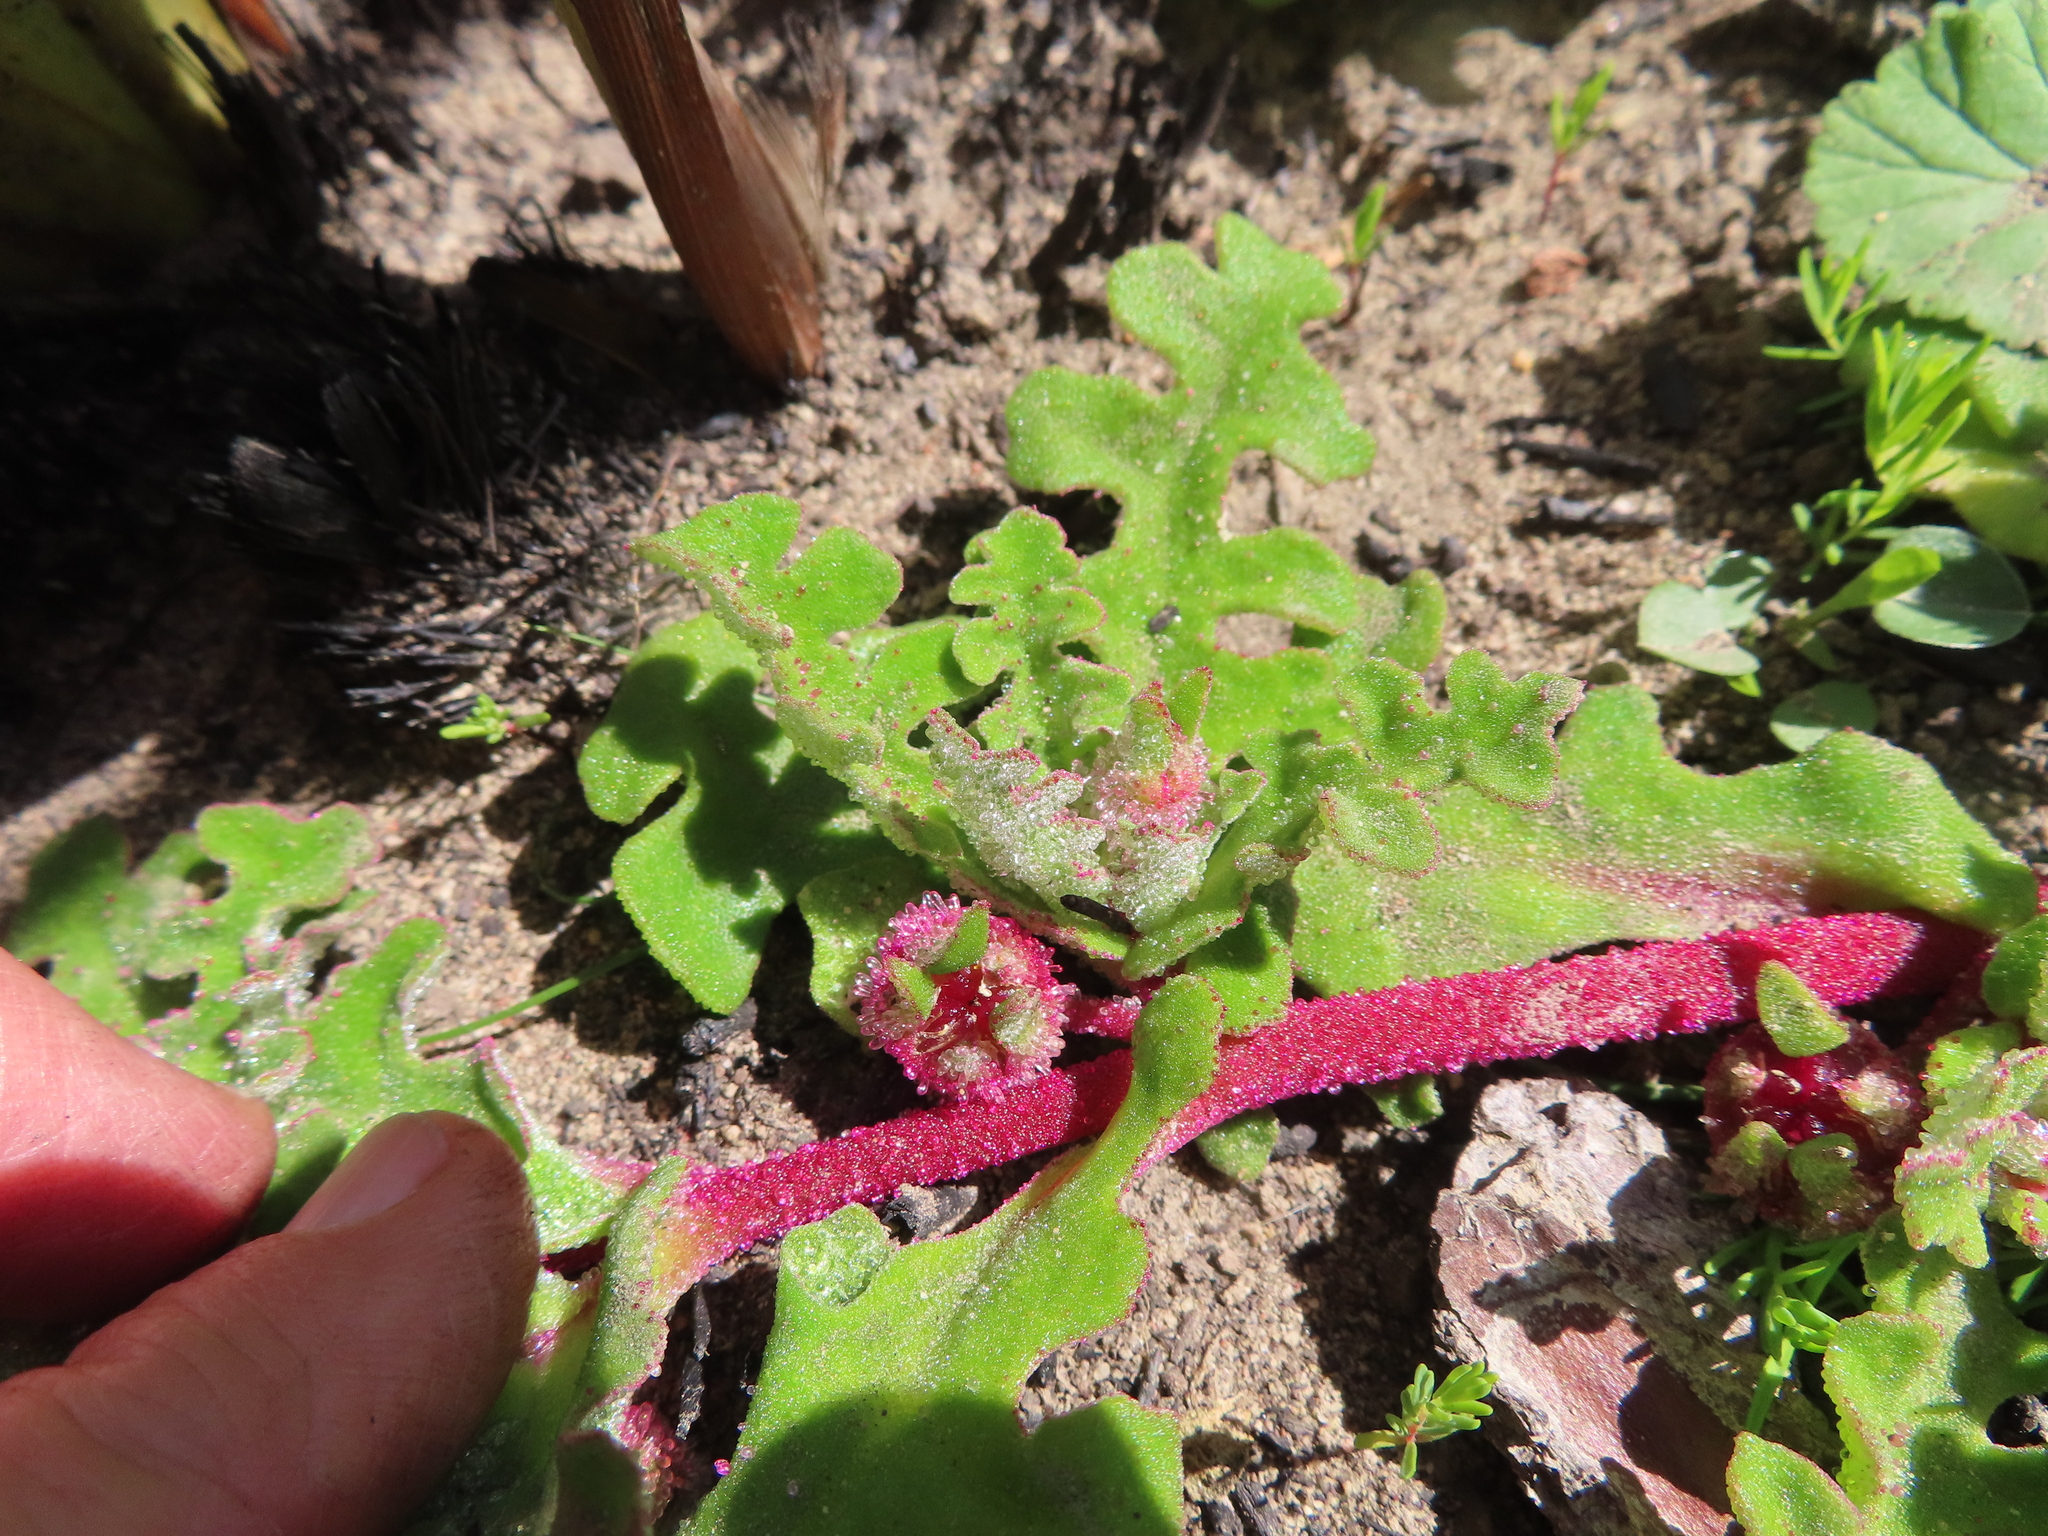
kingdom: Plantae
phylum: Tracheophyta
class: Magnoliopsida
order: Caryophyllales
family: Aizoaceae
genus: Cleretum
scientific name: Cleretum herrei
